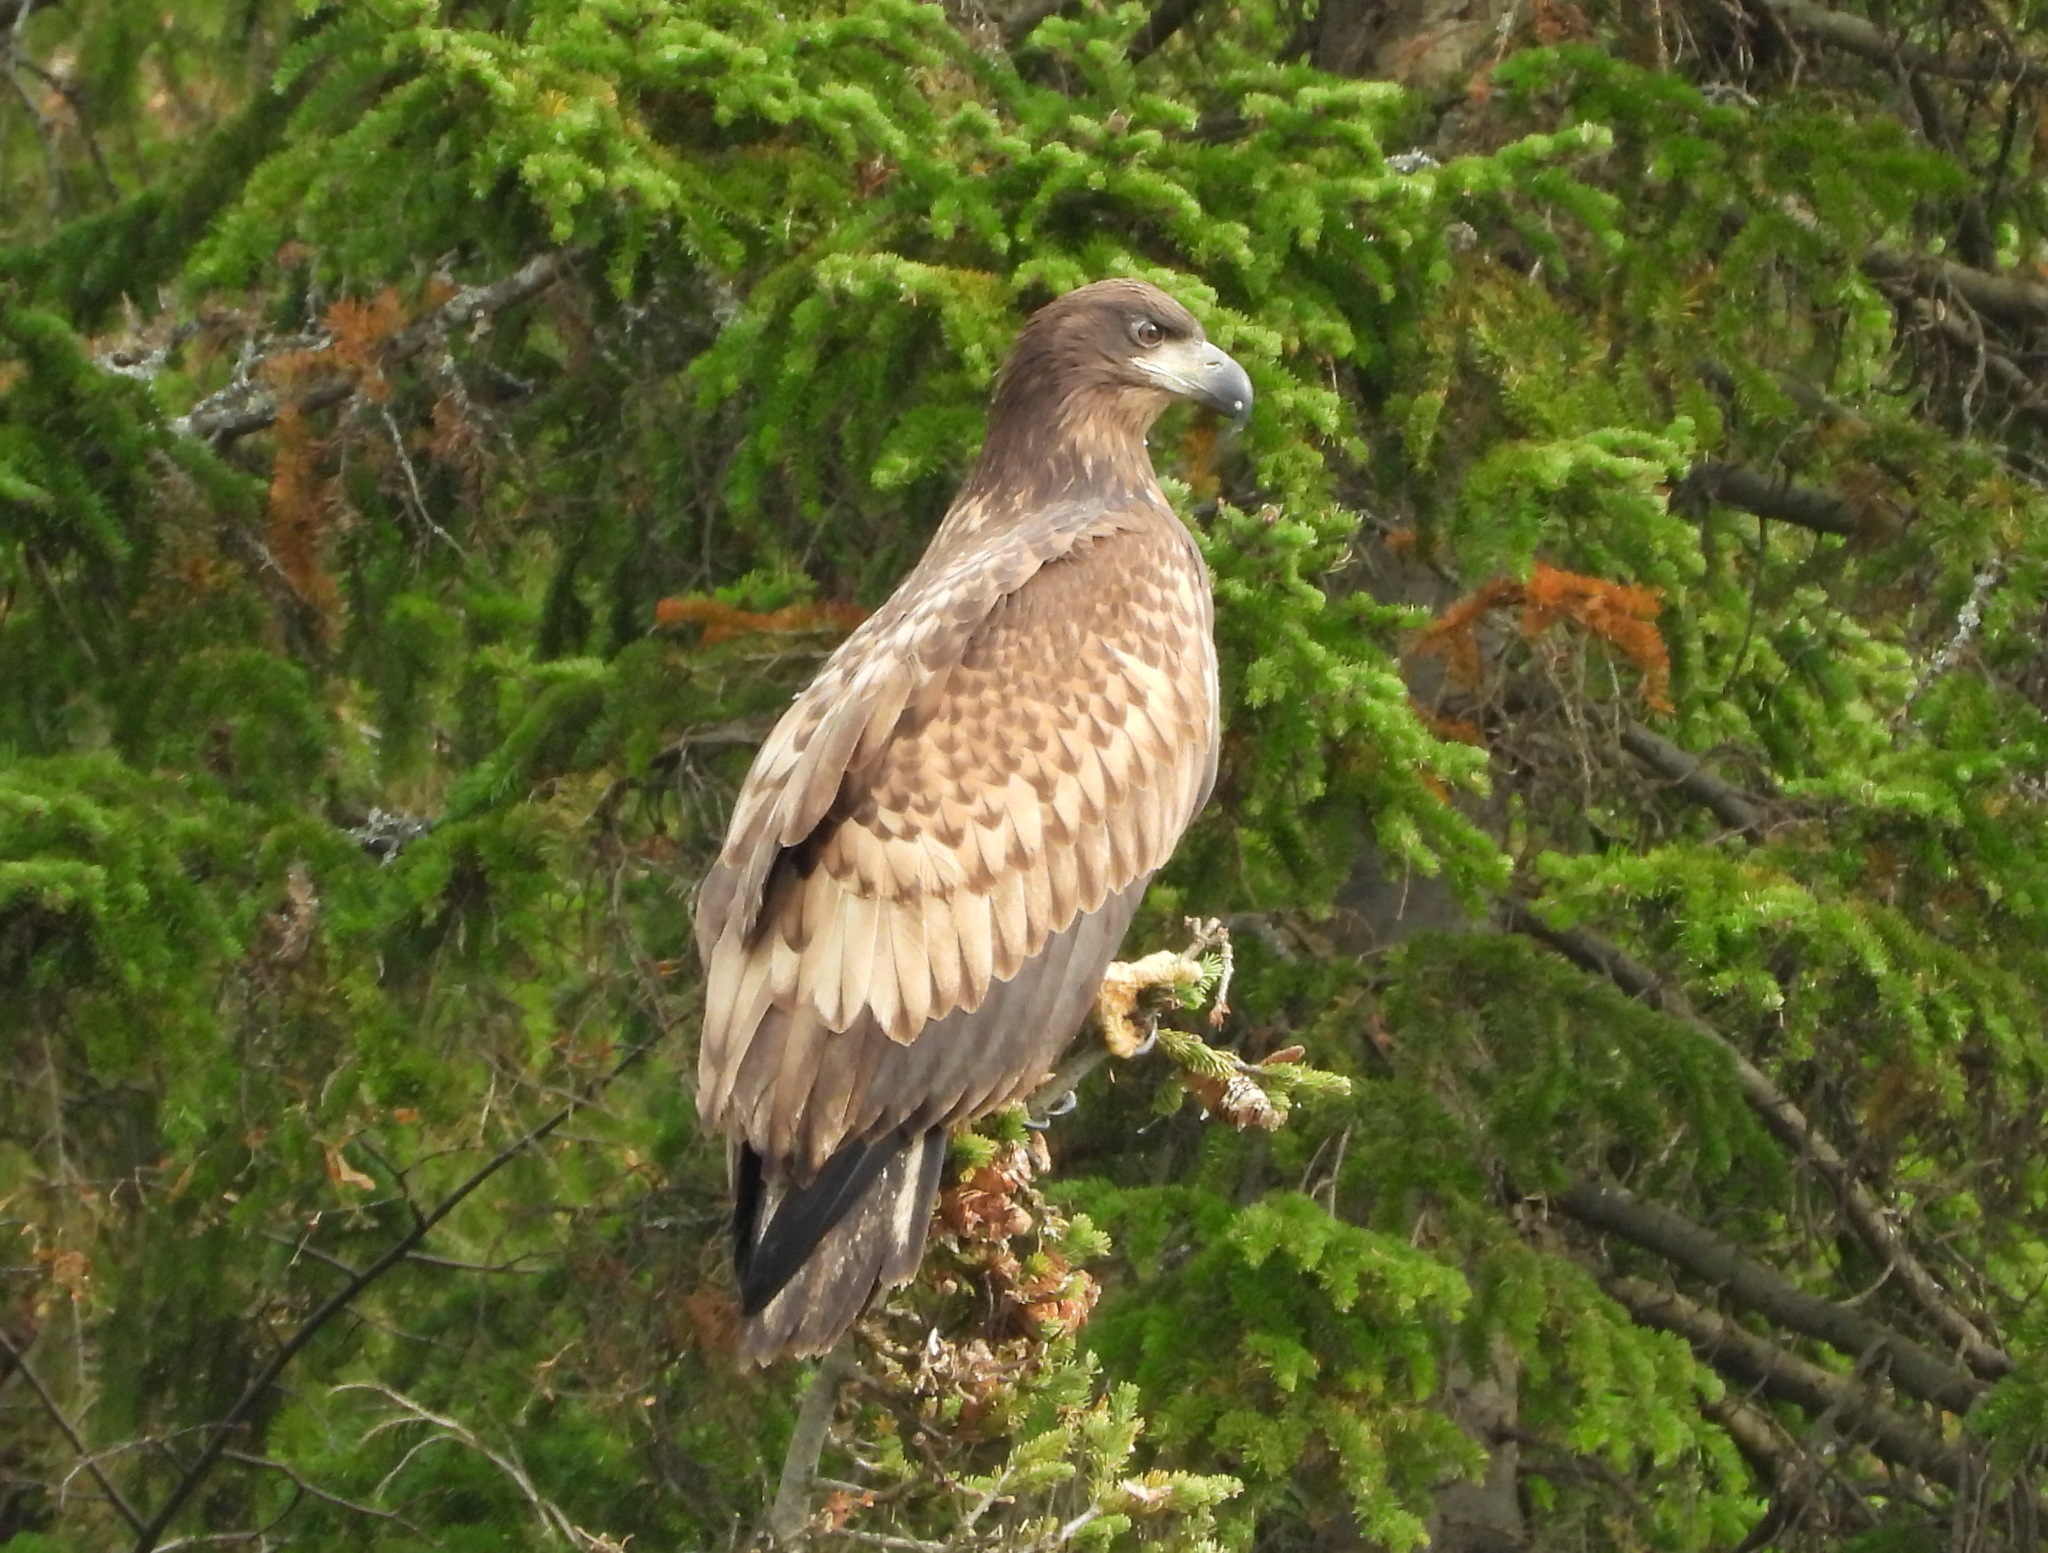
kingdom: Animalia
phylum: Chordata
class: Aves
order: Accipitriformes
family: Accipitridae
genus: Haliaeetus
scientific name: Haliaeetus albicilla
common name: White-tailed eagle
